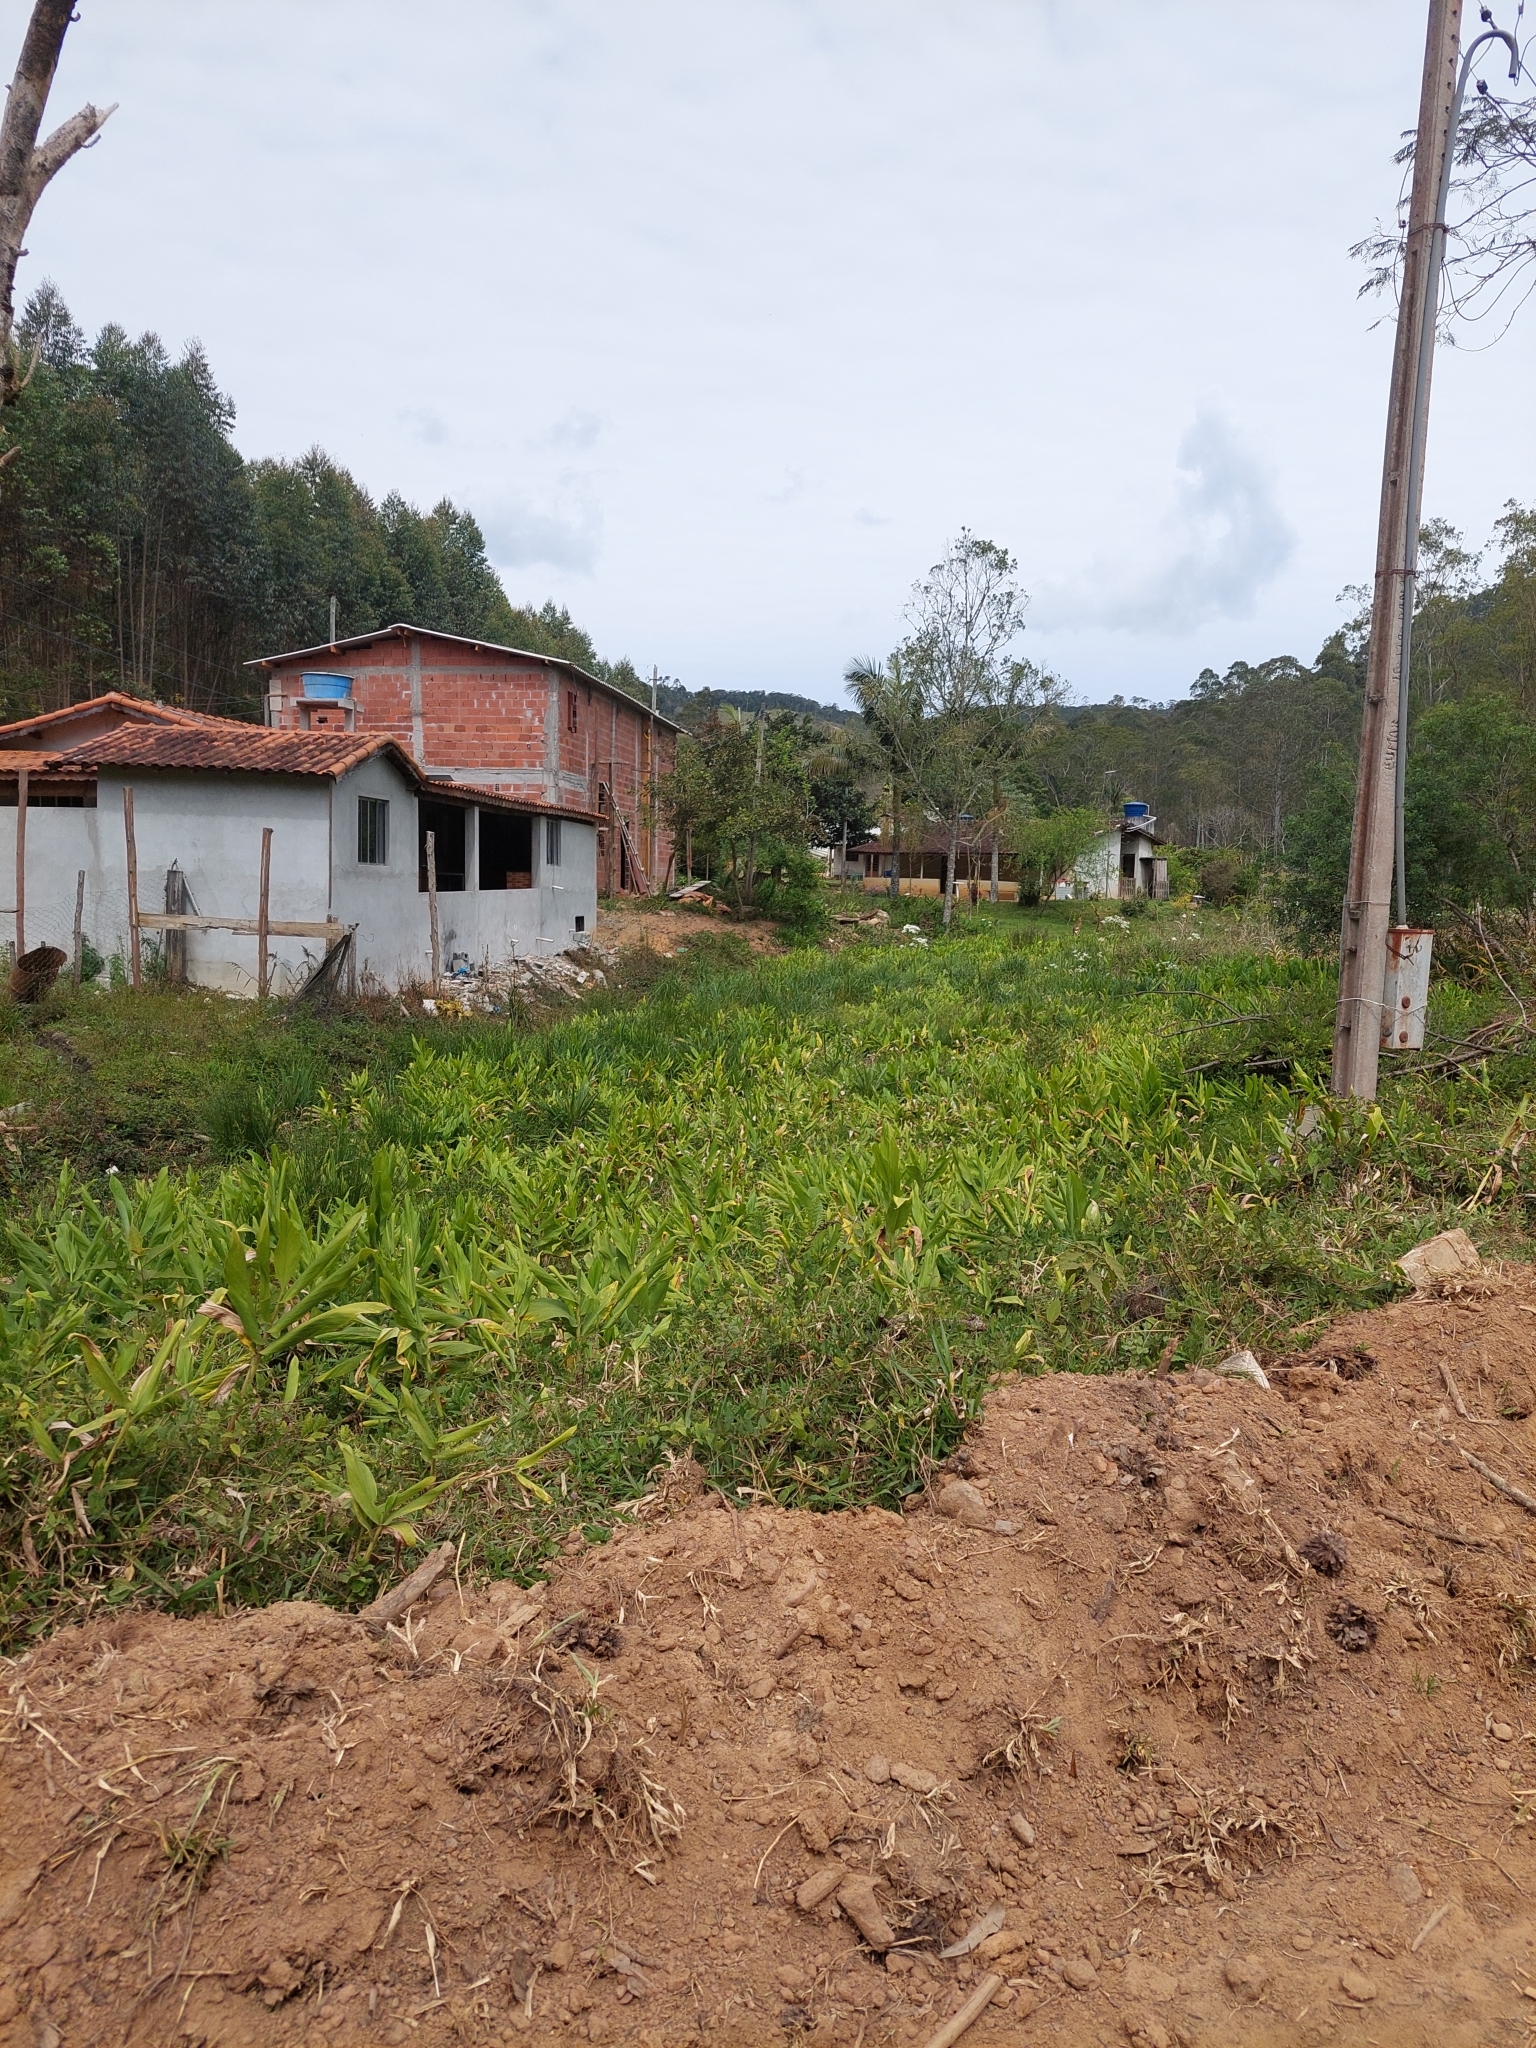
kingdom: Plantae
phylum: Tracheophyta
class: Liliopsida
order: Zingiberales
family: Zingiberaceae
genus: Hedychium
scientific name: Hedychium coronarium
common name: White garland-lily
